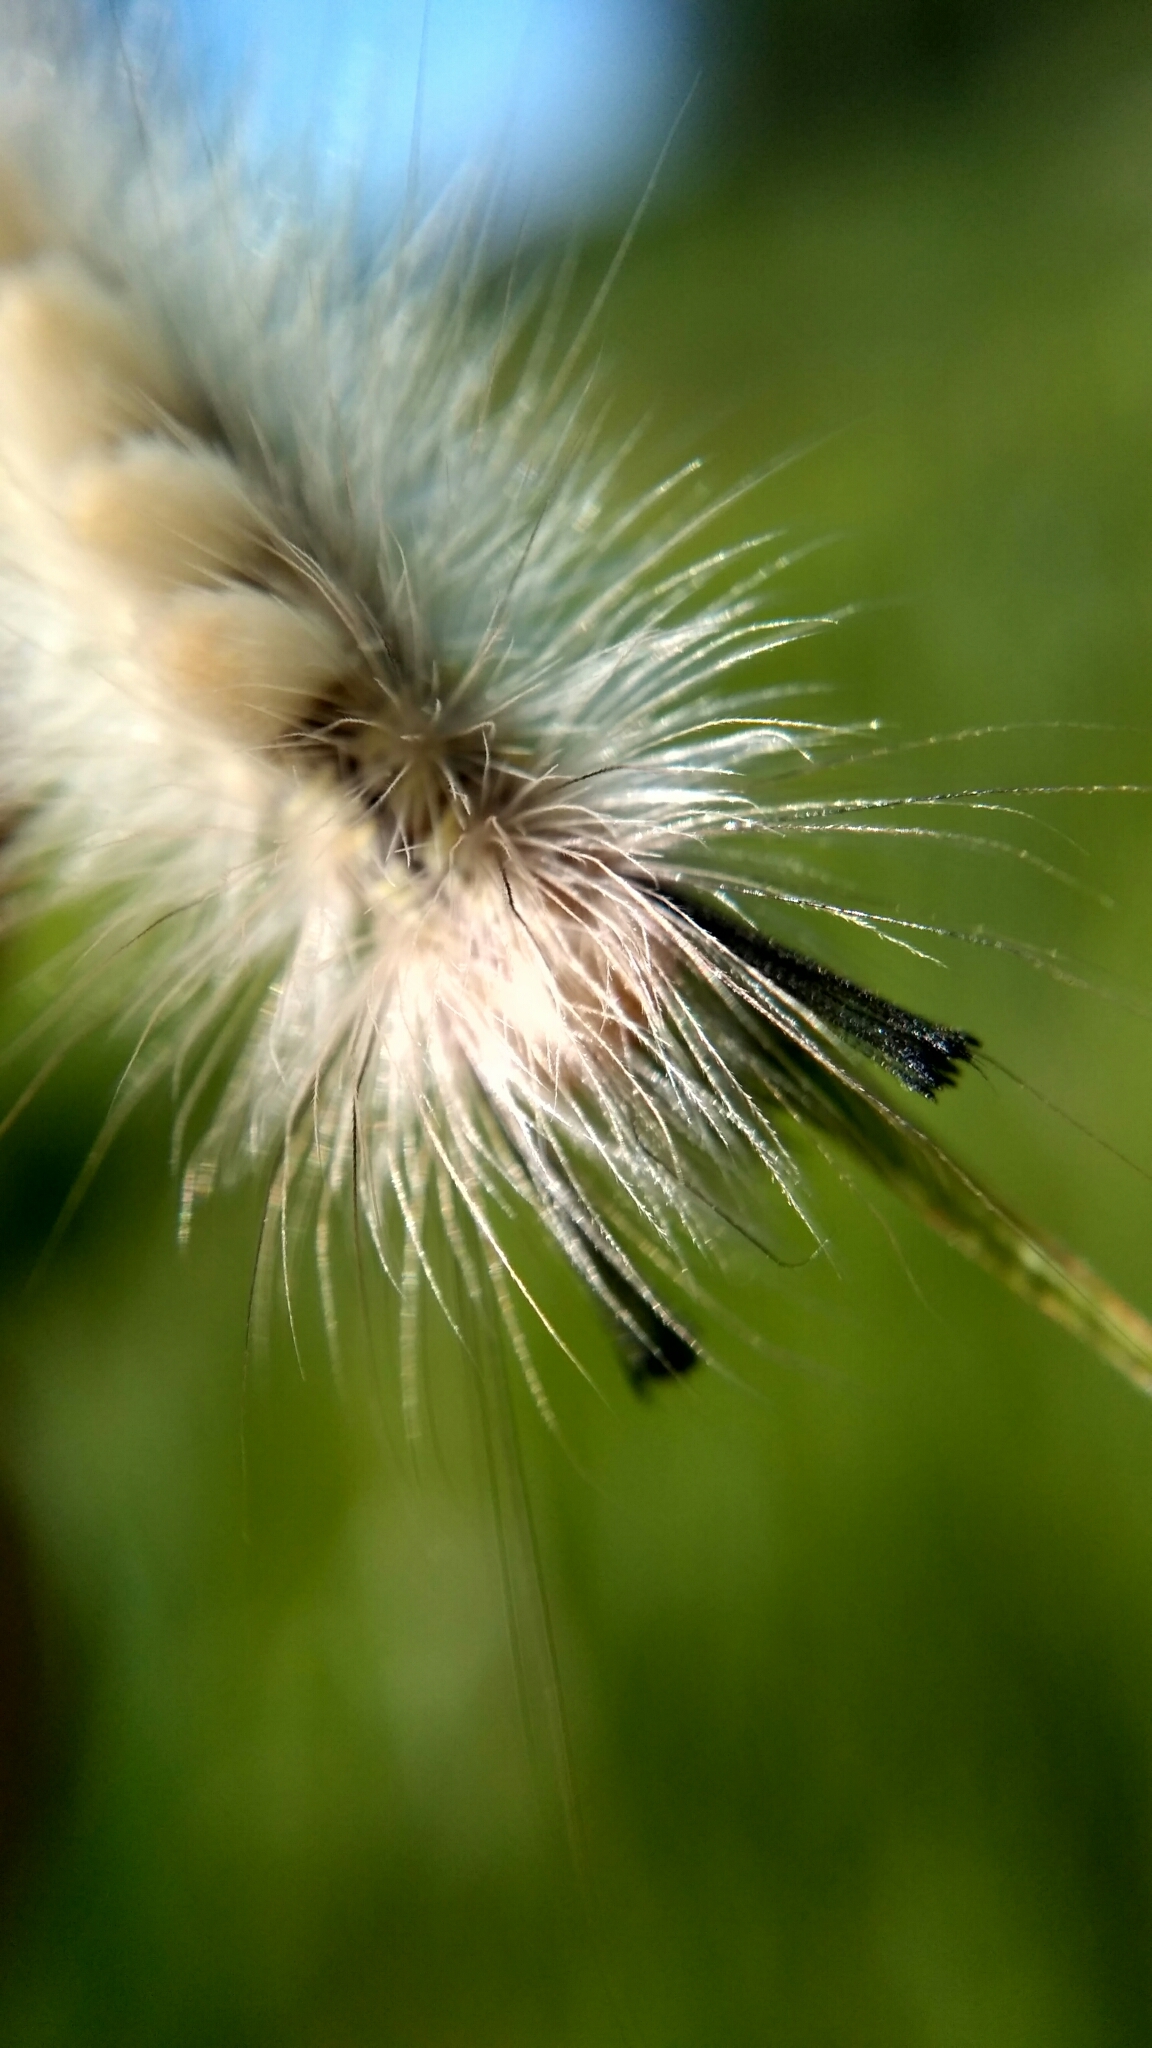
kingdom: Animalia
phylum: Arthropoda
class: Insecta
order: Lepidoptera
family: Erebidae
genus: Laelia
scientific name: Laelia coenosa
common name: Reed tussock
